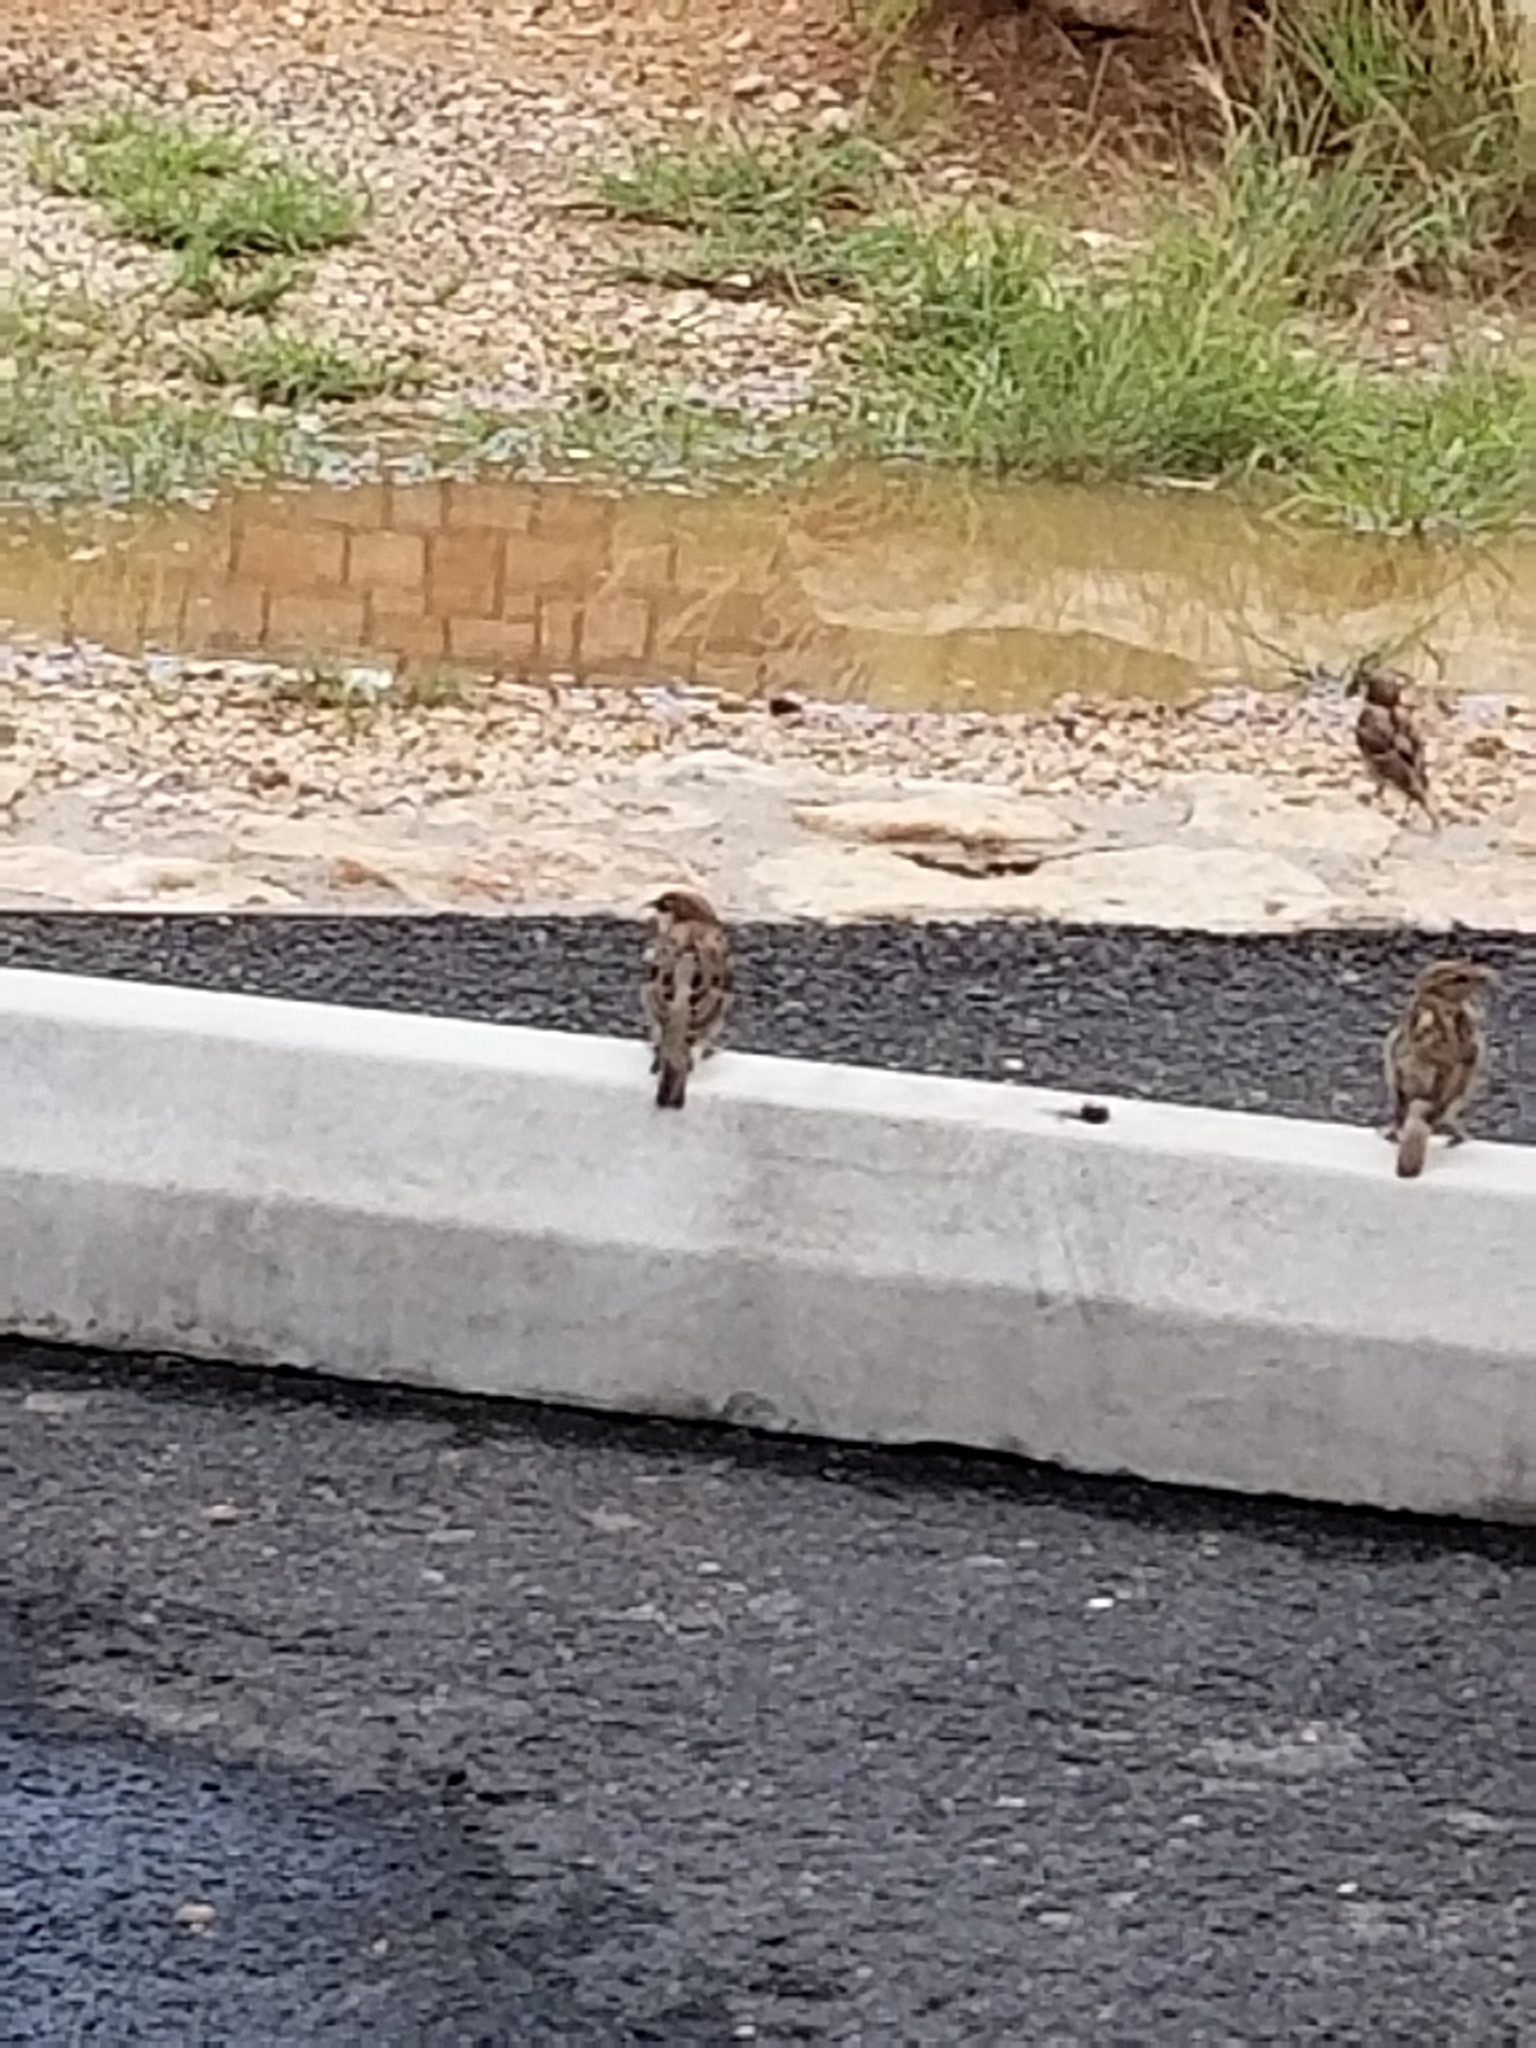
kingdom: Animalia
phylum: Chordata
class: Aves
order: Passeriformes
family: Passeridae
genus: Passer
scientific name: Passer domesticus
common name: House sparrow
